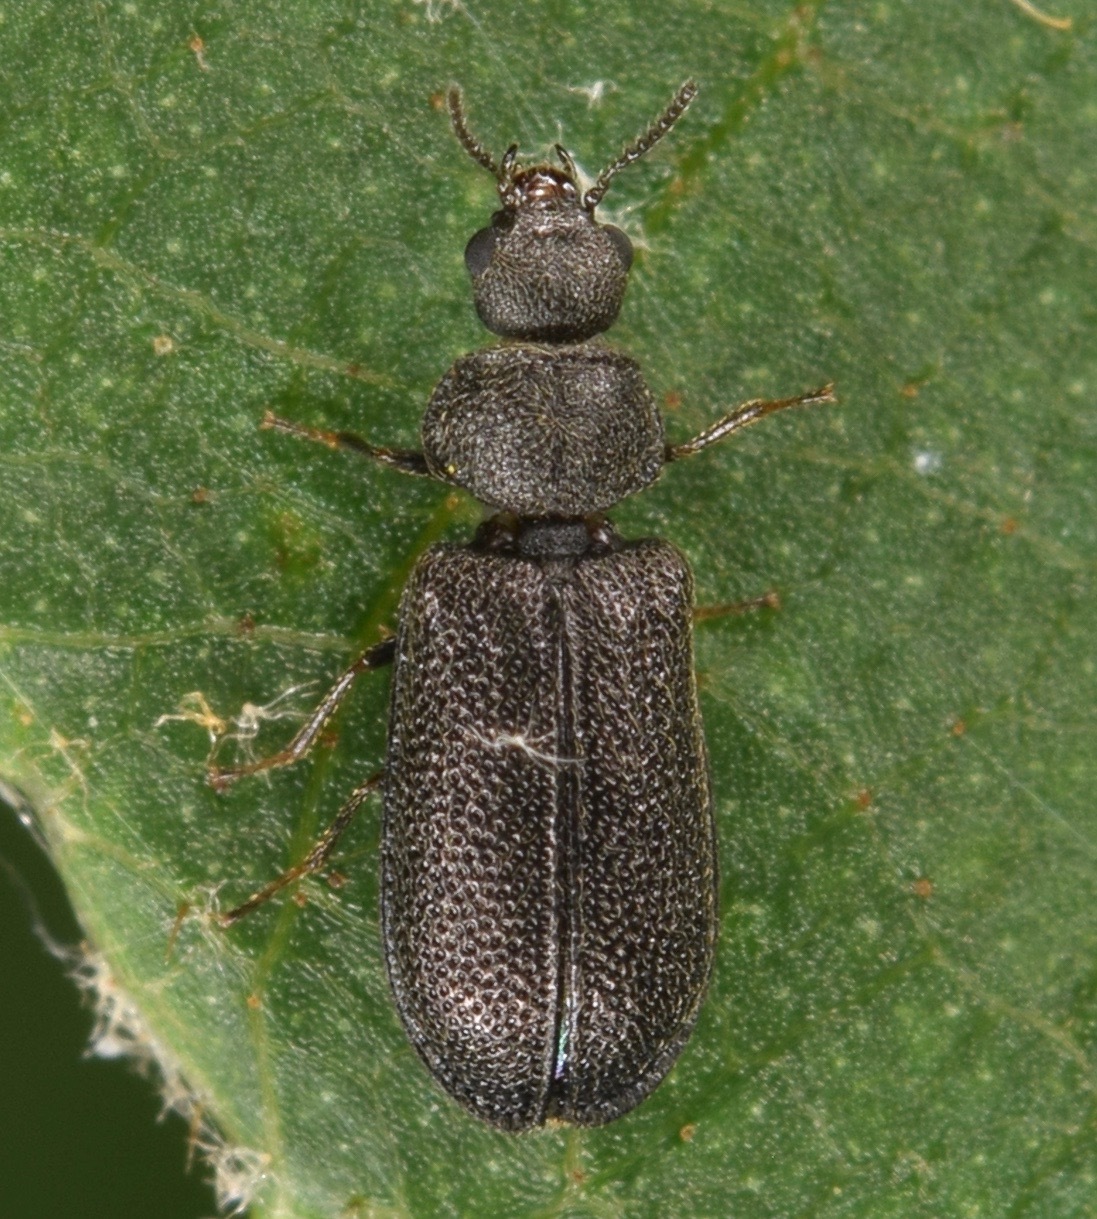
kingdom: Animalia
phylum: Arthropoda
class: Insecta
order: Coleoptera
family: Melyridae
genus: Melyrodes
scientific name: Melyrodes
